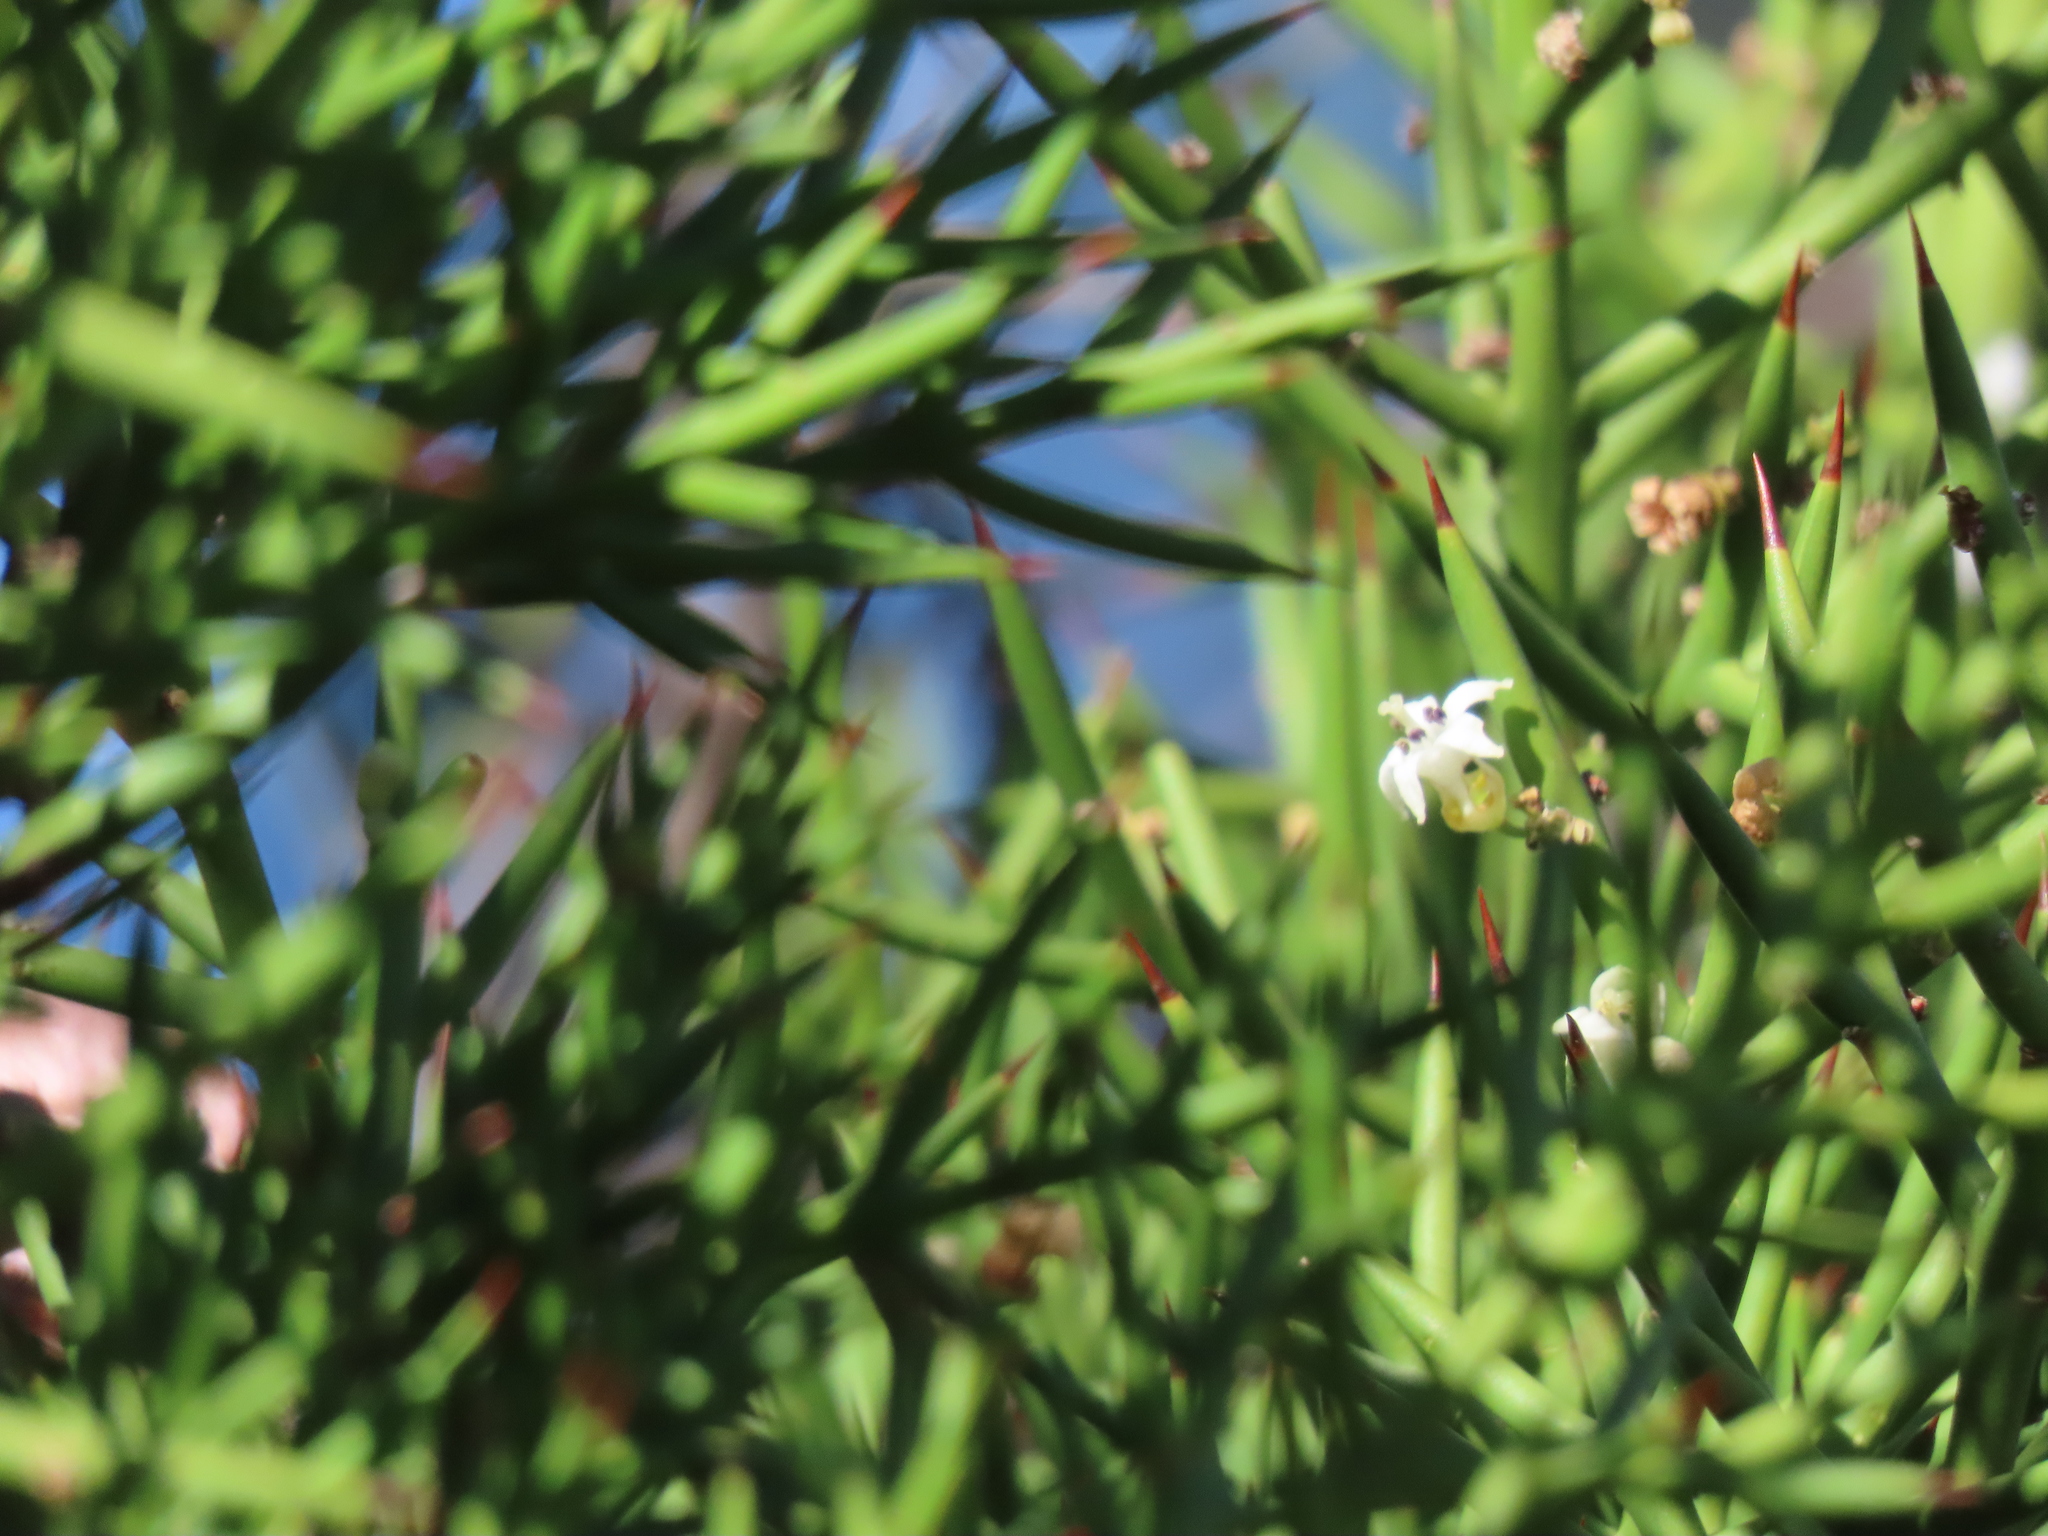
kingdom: Plantae
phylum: Tracheophyta
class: Magnoliopsida
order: Rosales
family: Rhamnaceae
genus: Colletia
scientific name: Colletia hystrix
